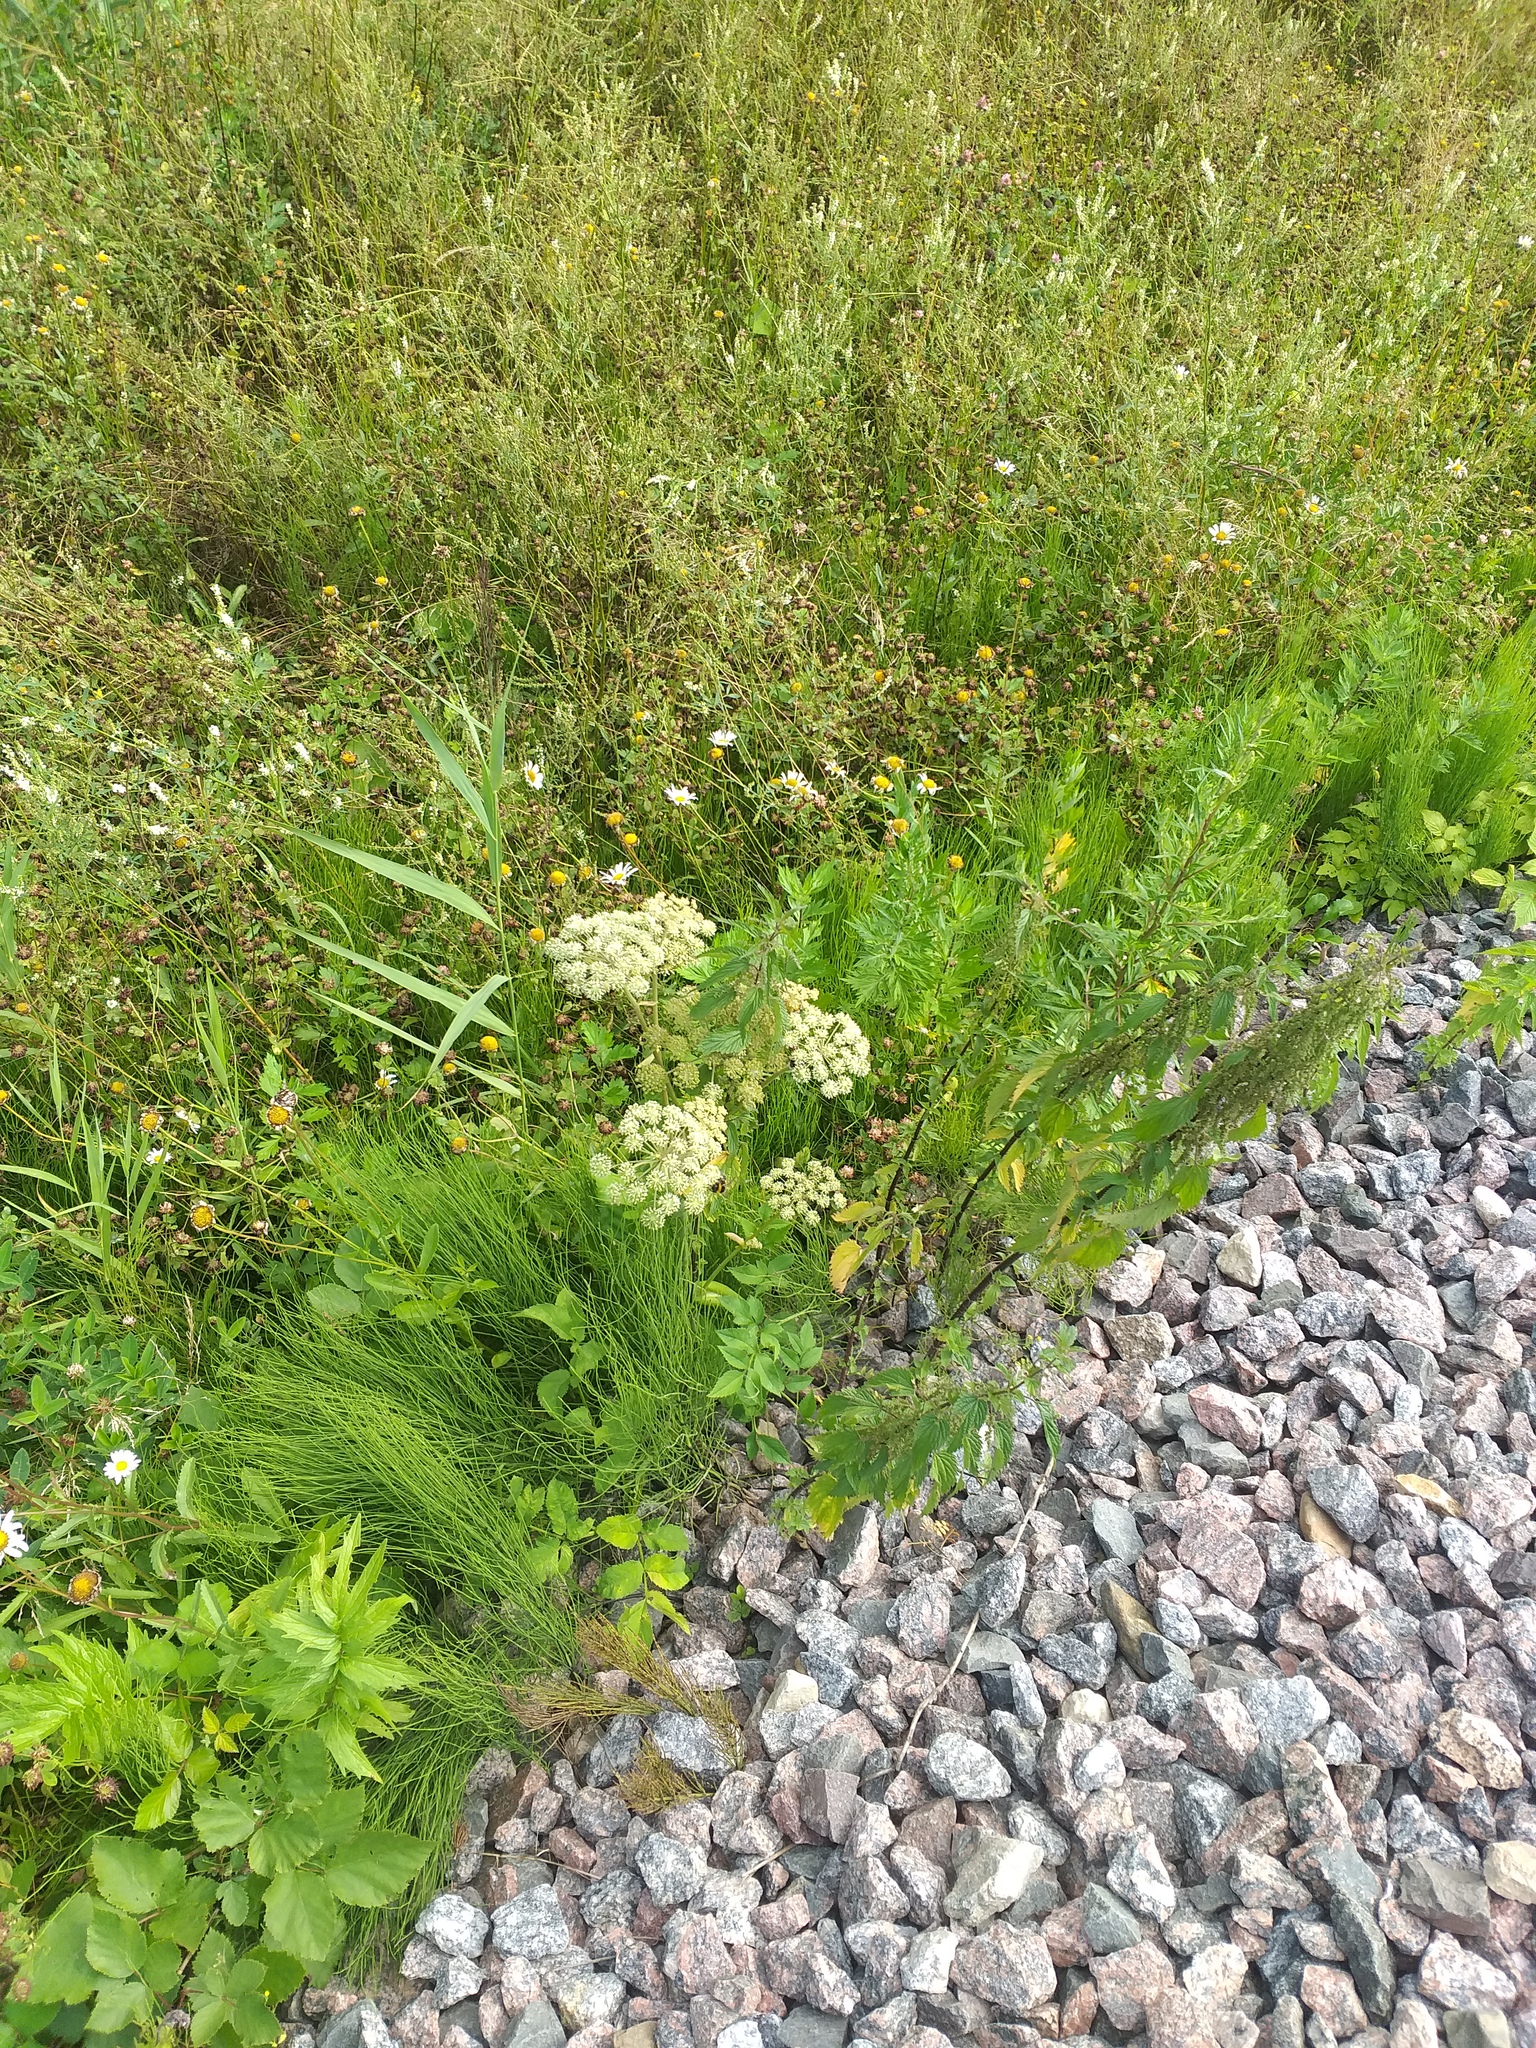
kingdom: Plantae
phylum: Tracheophyta
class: Magnoliopsida
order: Apiales
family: Apiaceae
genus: Angelica
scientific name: Angelica sylvestris
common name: Wild angelica
